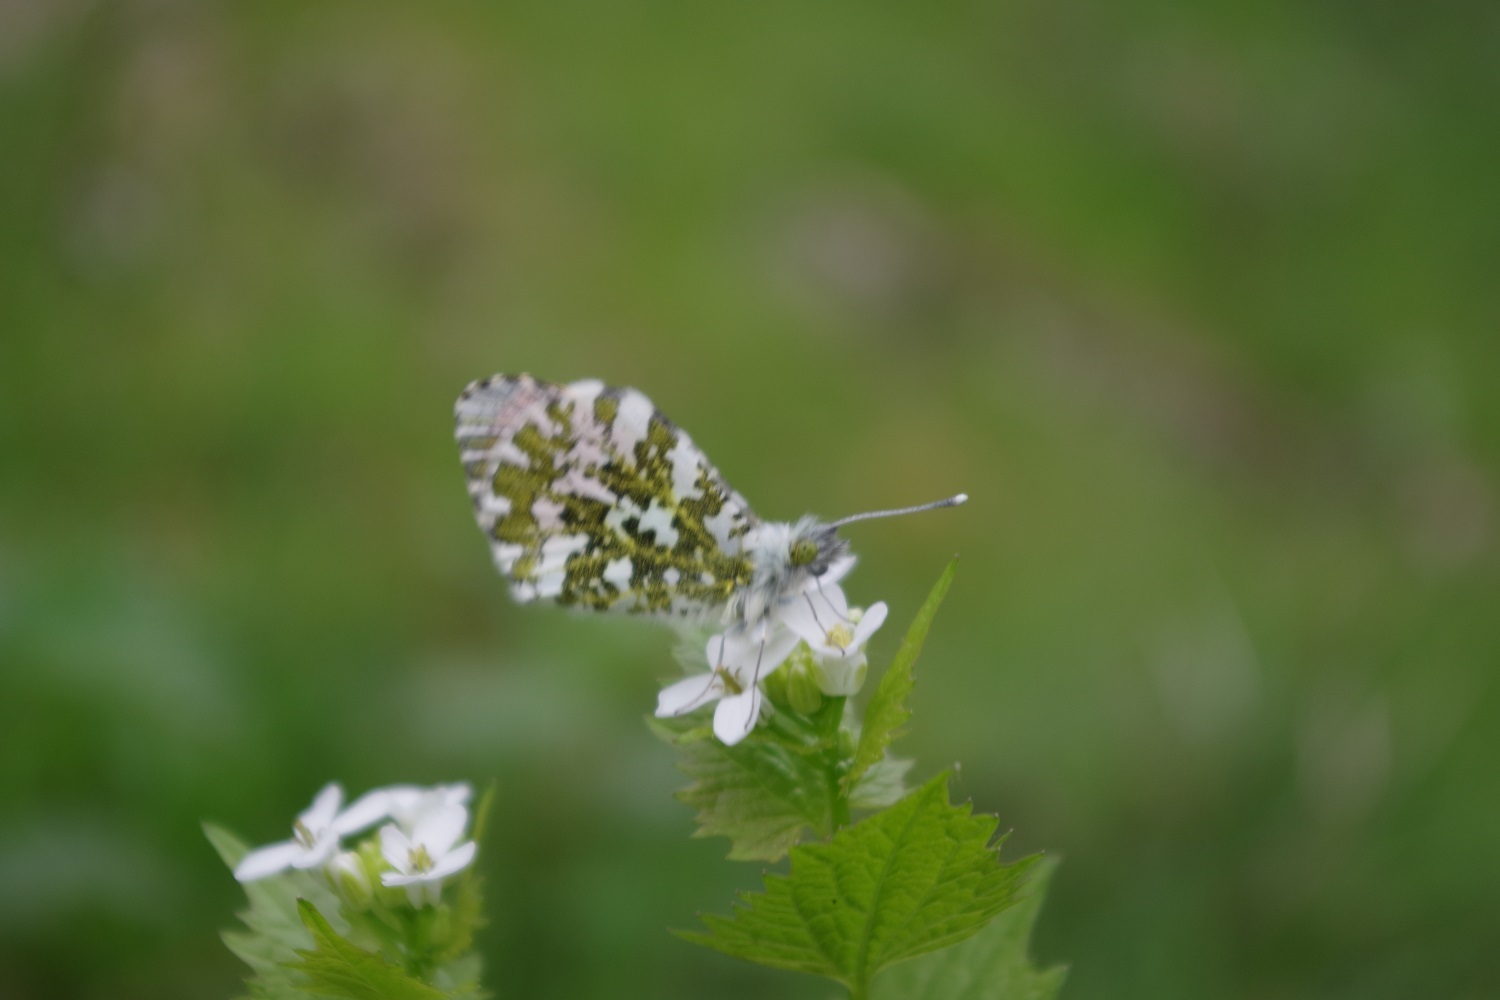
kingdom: Animalia
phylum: Arthropoda
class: Insecta
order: Lepidoptera
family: Pieridae
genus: Anthocharis
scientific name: Anthocharis cardamines
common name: Orange-tip
